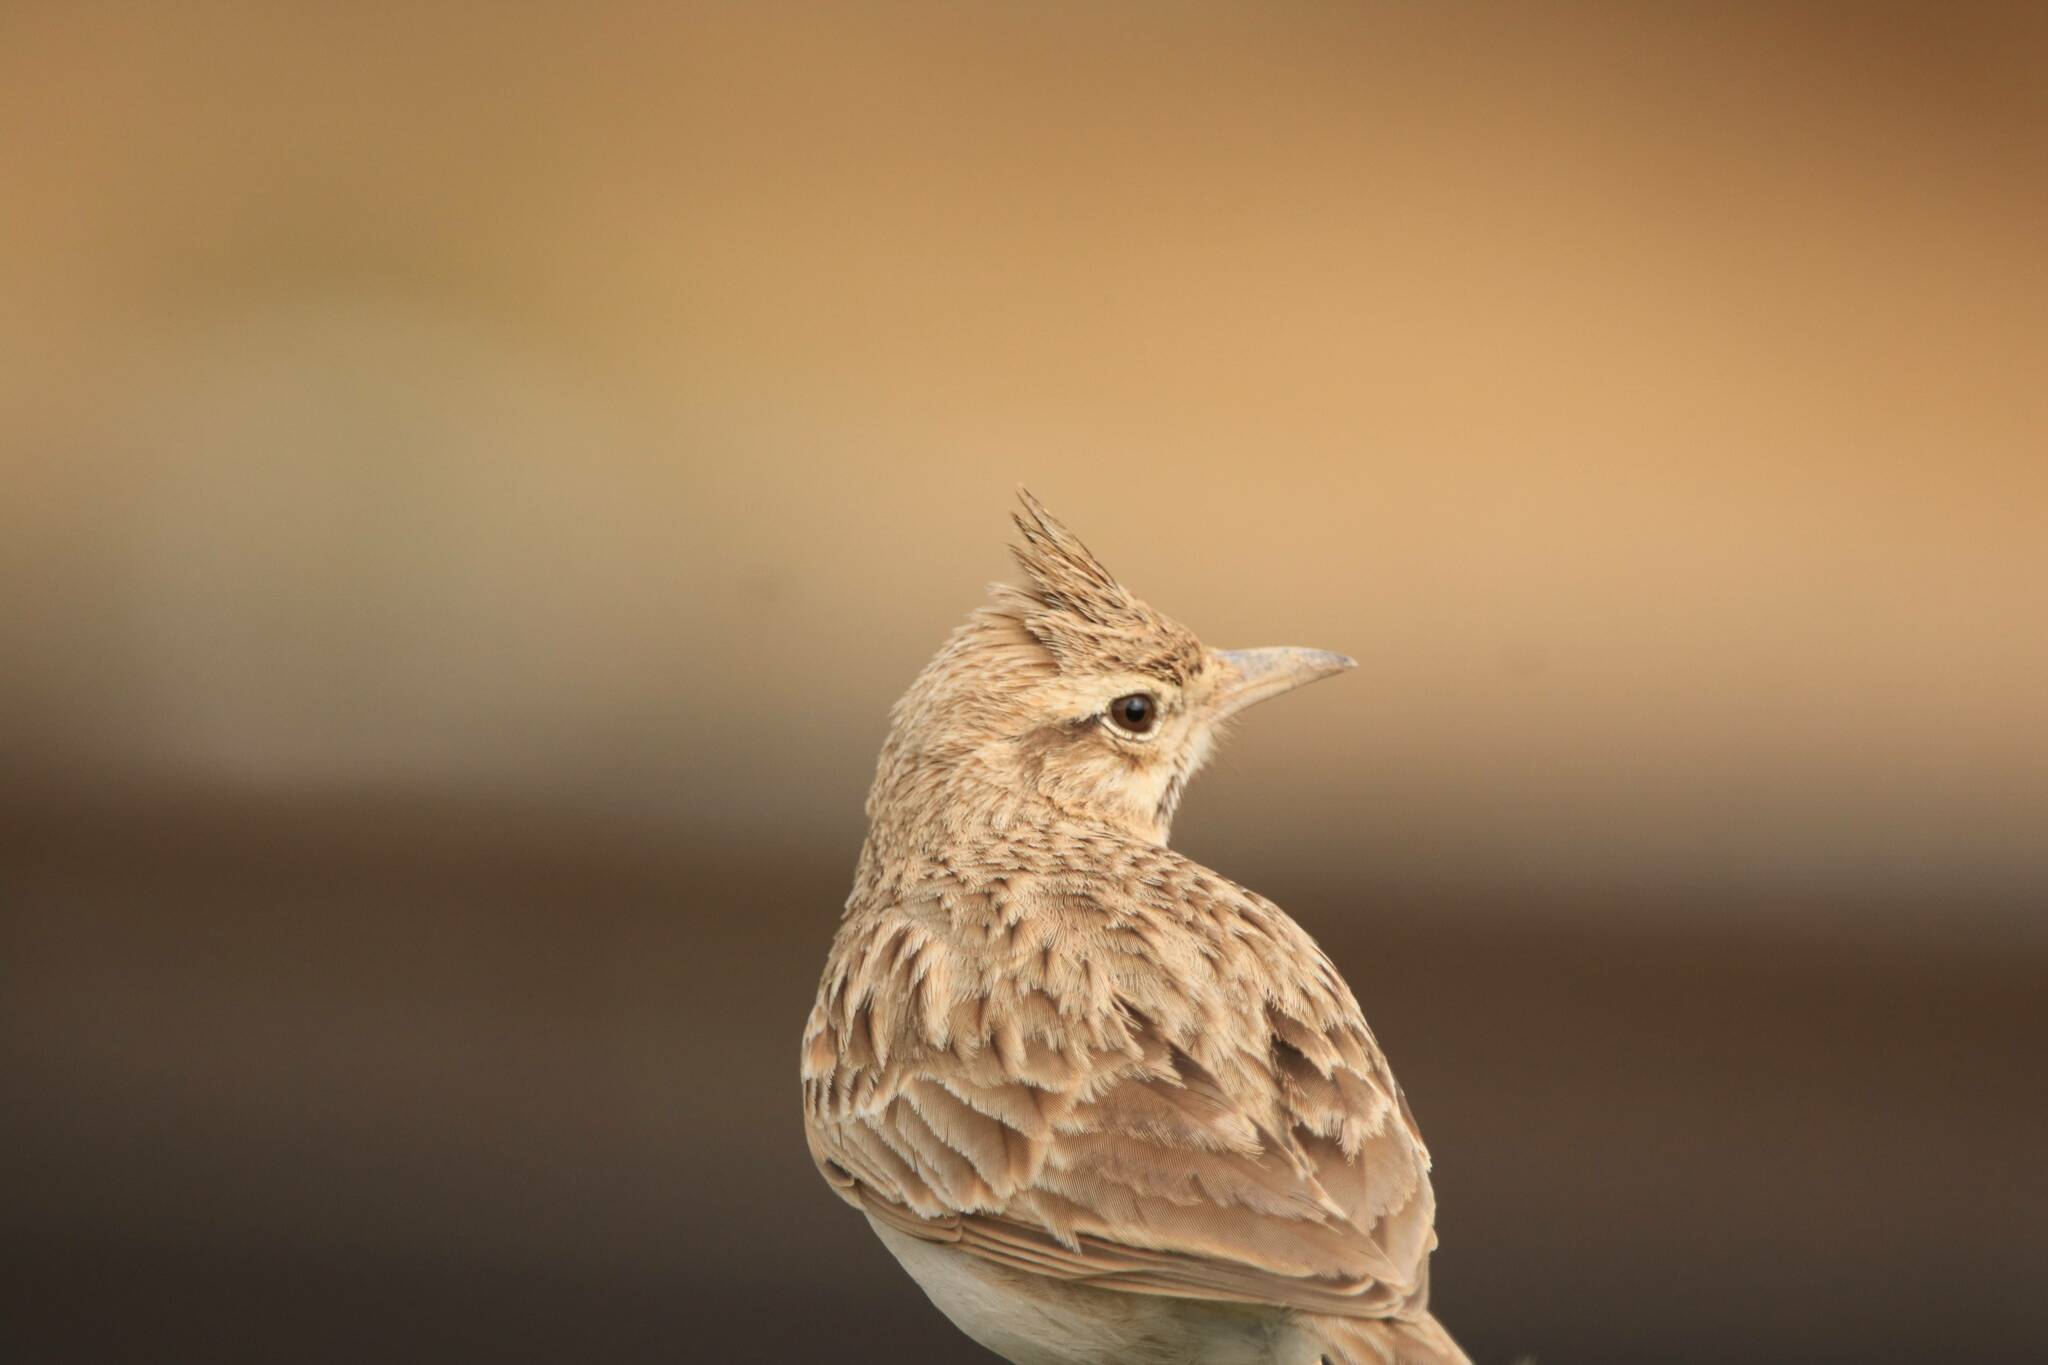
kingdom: Animalia
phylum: Chordata
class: Aves
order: Passeriformes
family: Alaudidae
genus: Galerida
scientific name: Galerida cristata
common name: Crested lark
